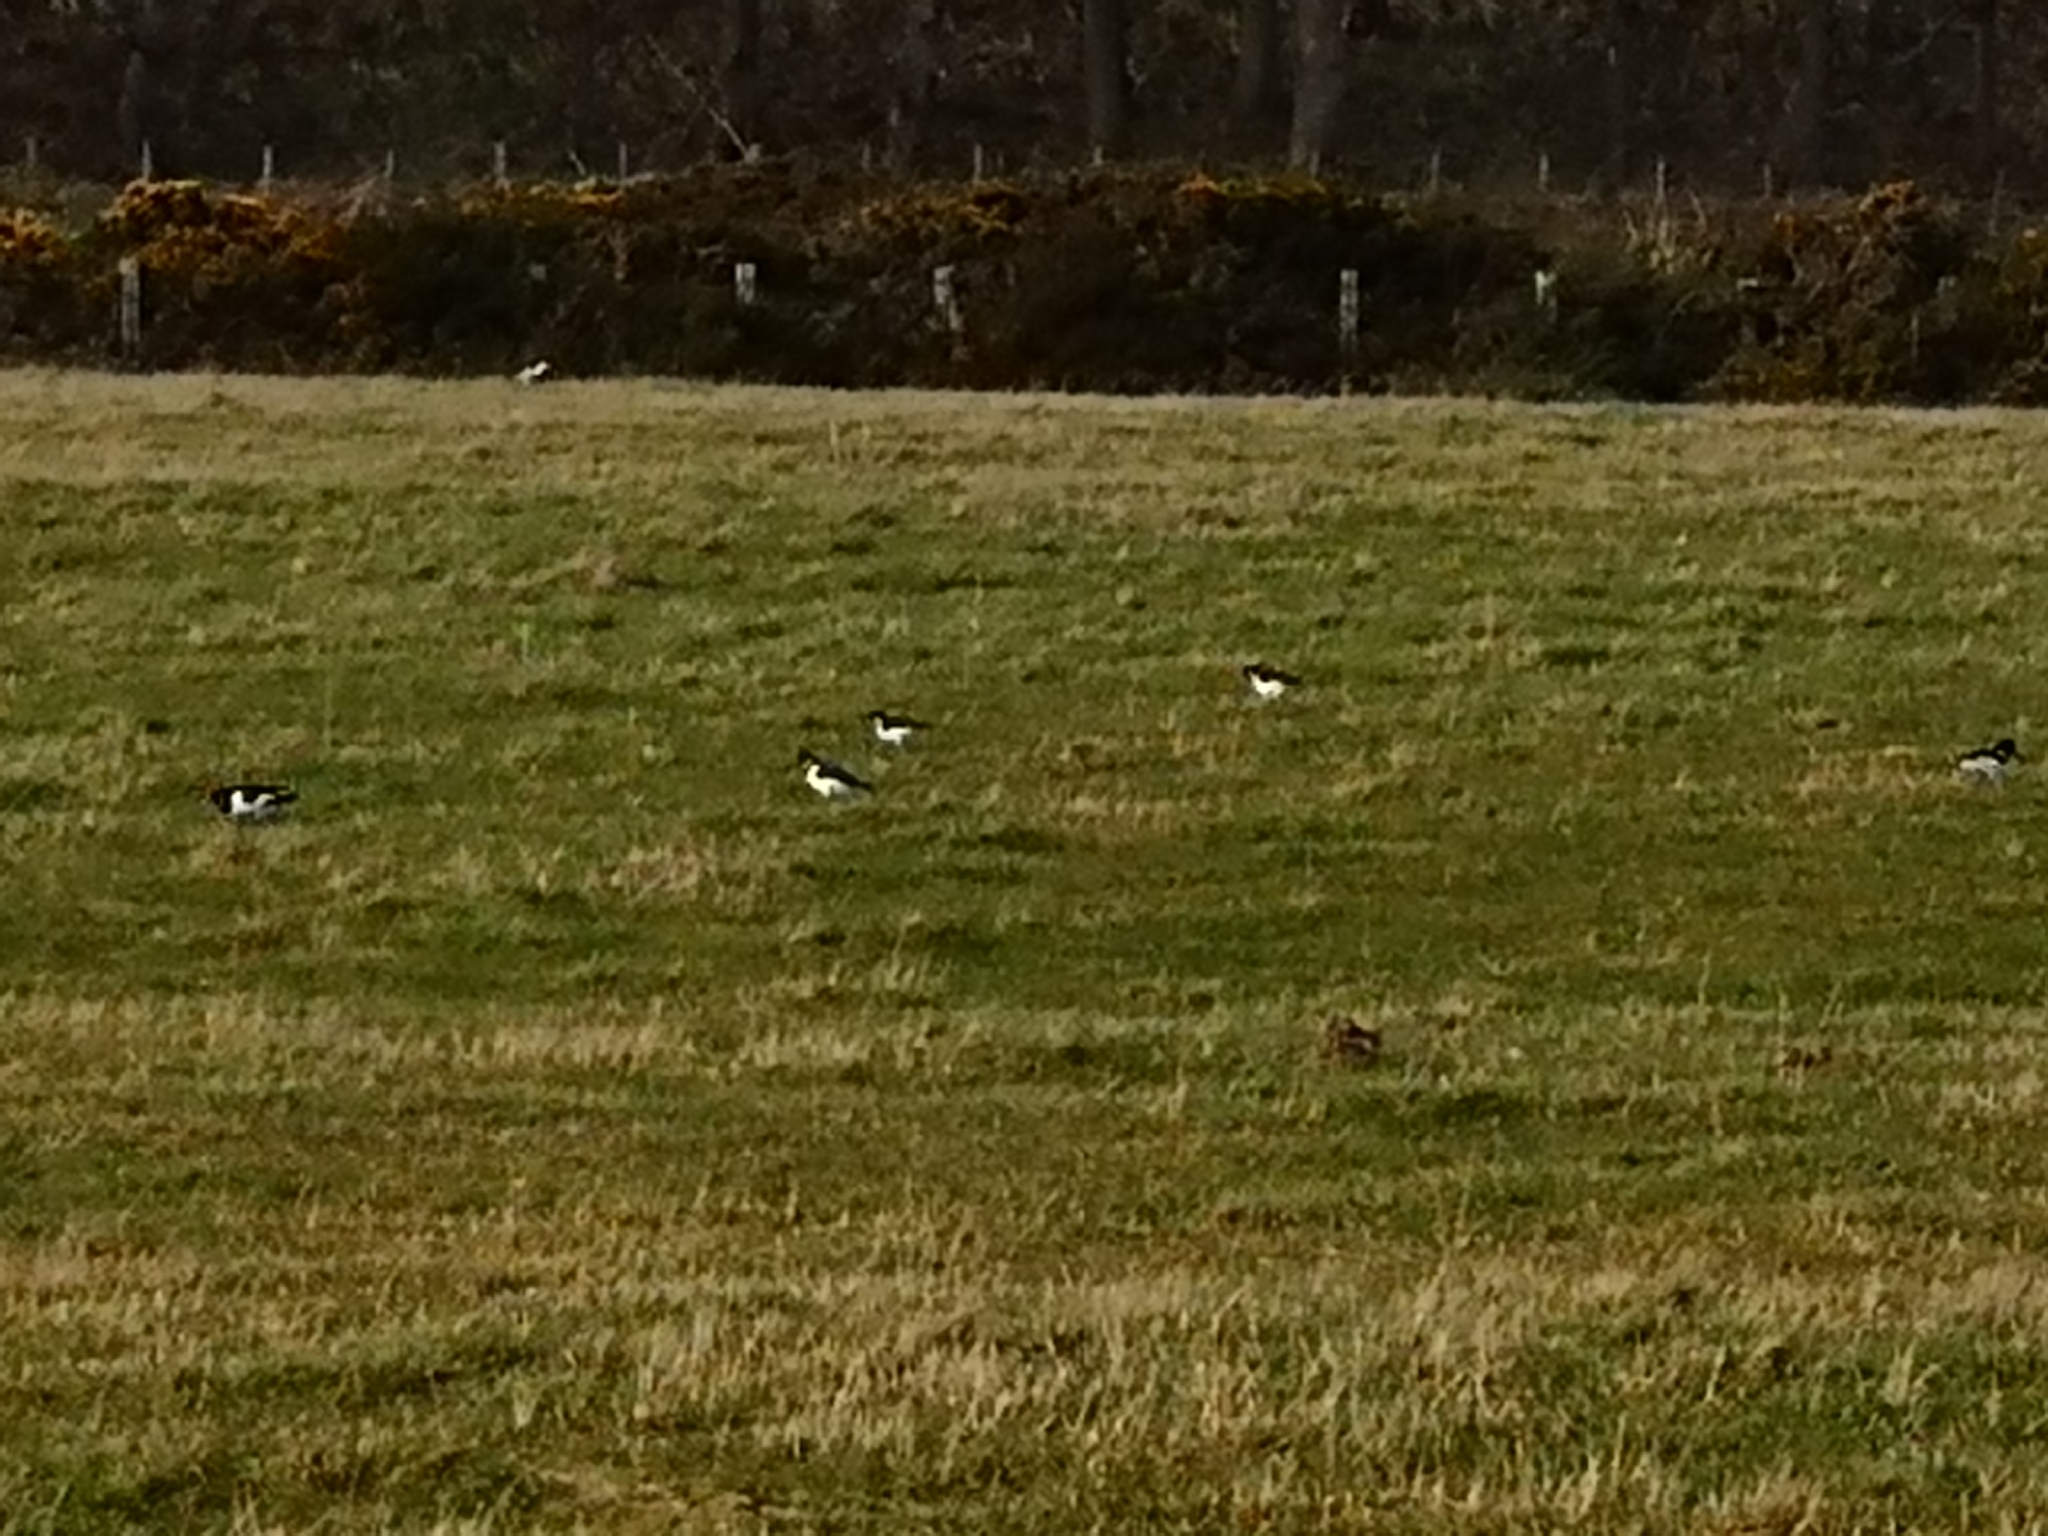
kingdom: Animalia
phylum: Chordata
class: Aves
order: Charadriiformes
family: Haematopodidae
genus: Haematopus
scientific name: Haematopus ostralegus
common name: Eurasian oystercatcher
